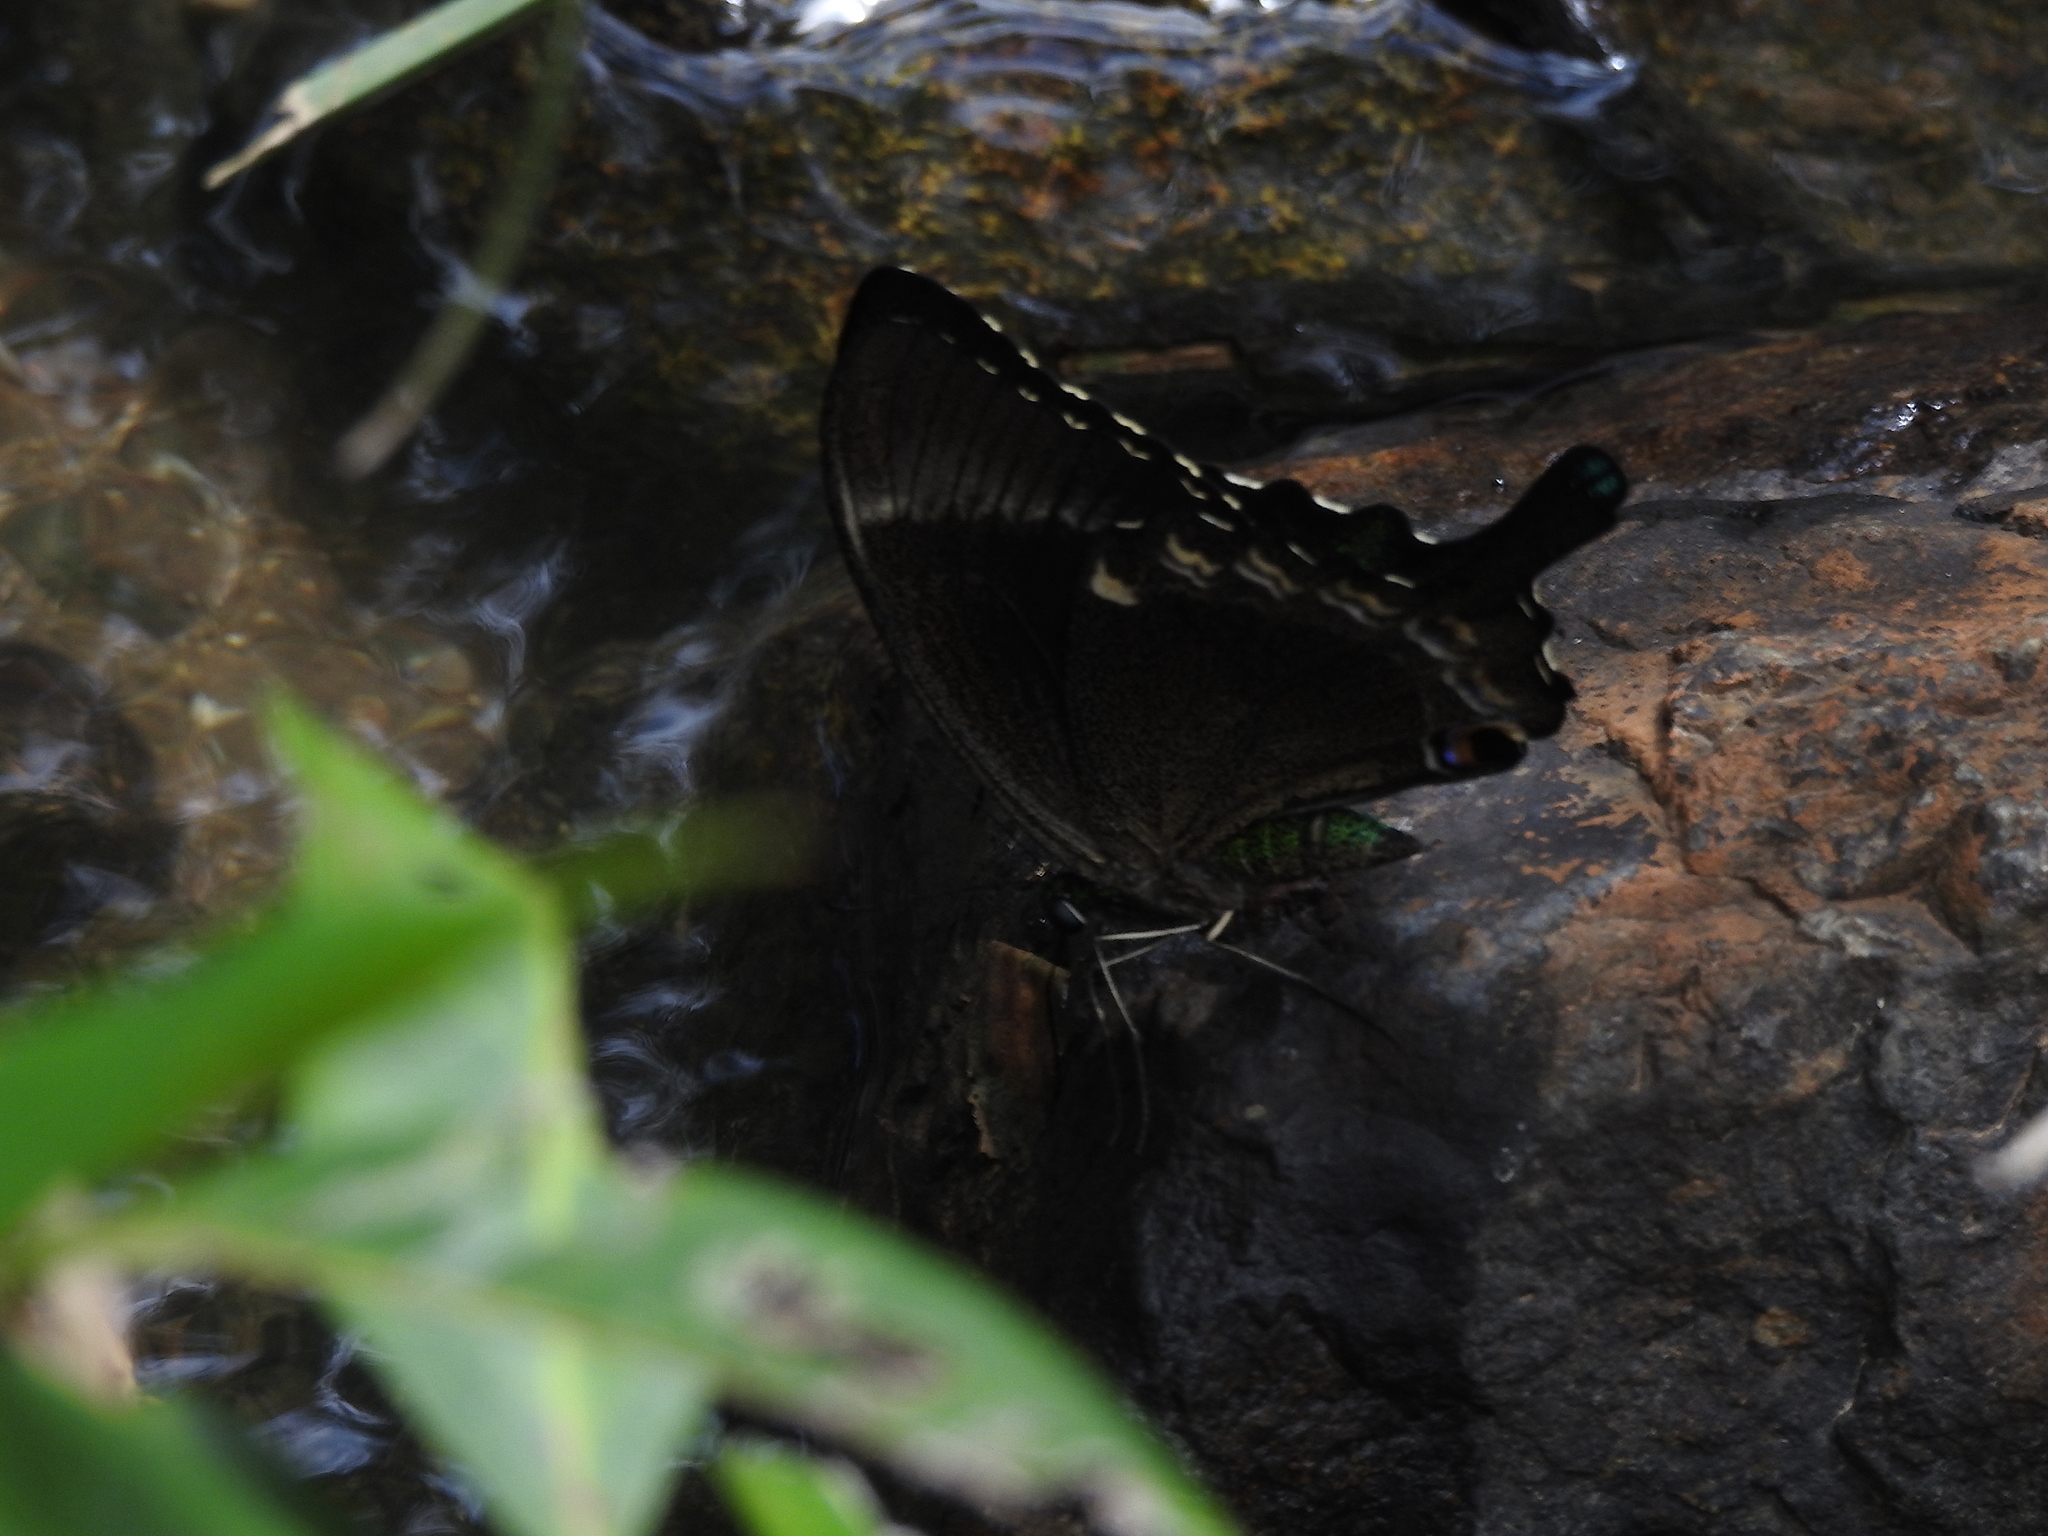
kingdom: Animalia
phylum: Arthropoda
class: Insecta
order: Lepidoptera
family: Papilionidae
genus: Papilio
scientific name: Papilio crino
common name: Common banded peacock
